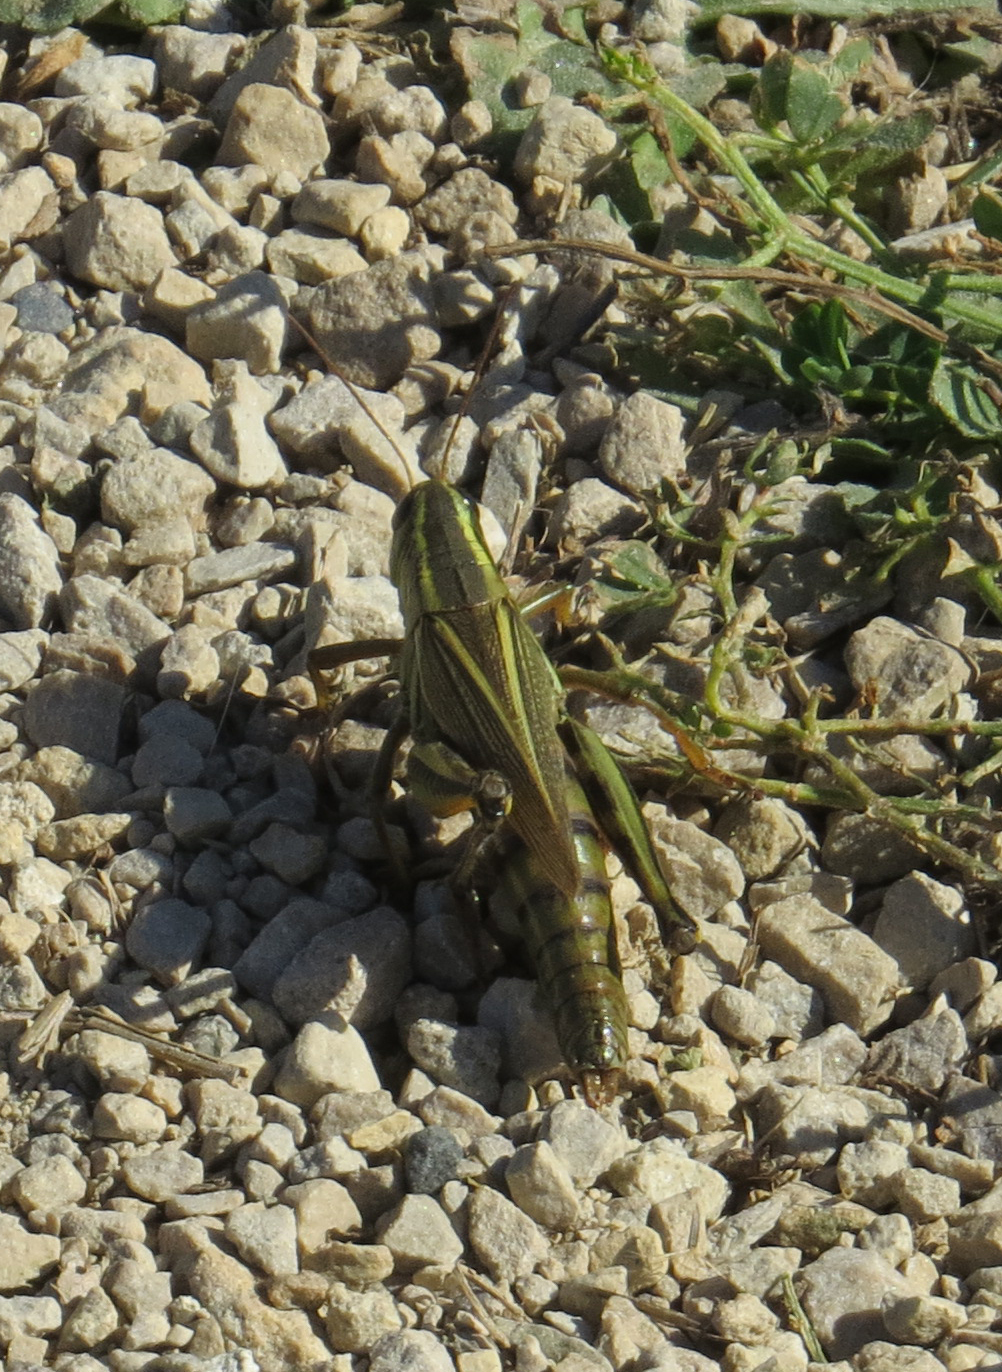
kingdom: Animalia
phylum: Arthropoda
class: Insecta
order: Orthoptera
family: Acrididae
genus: Melanoplus
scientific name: Melanoplus bivittatus
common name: Two-striped grasshopper
